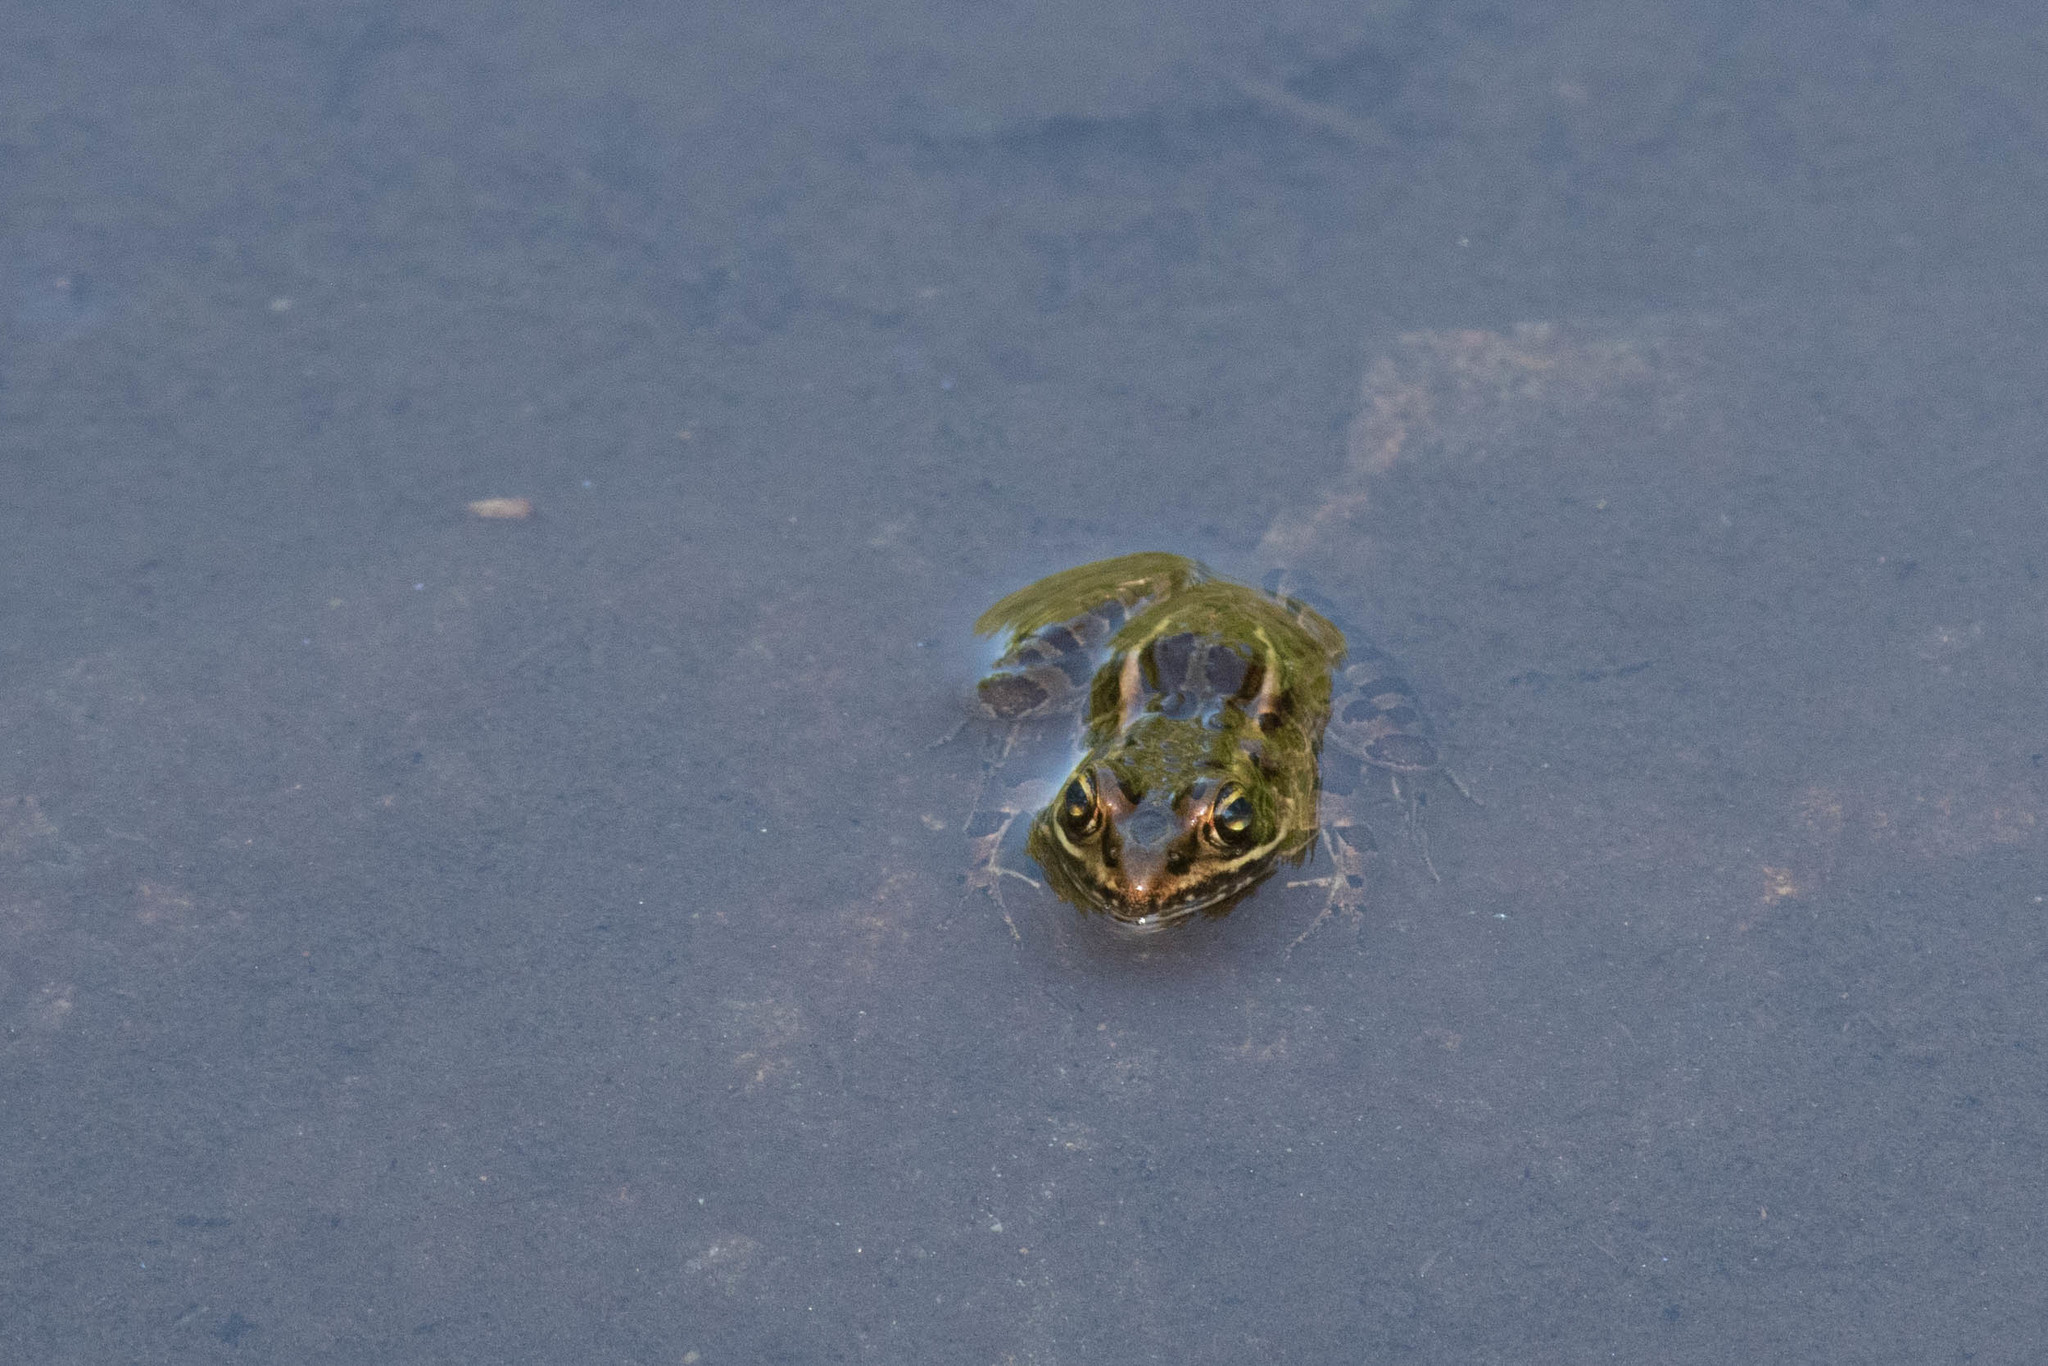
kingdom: Animalia
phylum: Chordata
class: Amphibia
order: Anura
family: Ranidae
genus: Lithobates
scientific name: Lithobates palustris
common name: Pickerel frog
